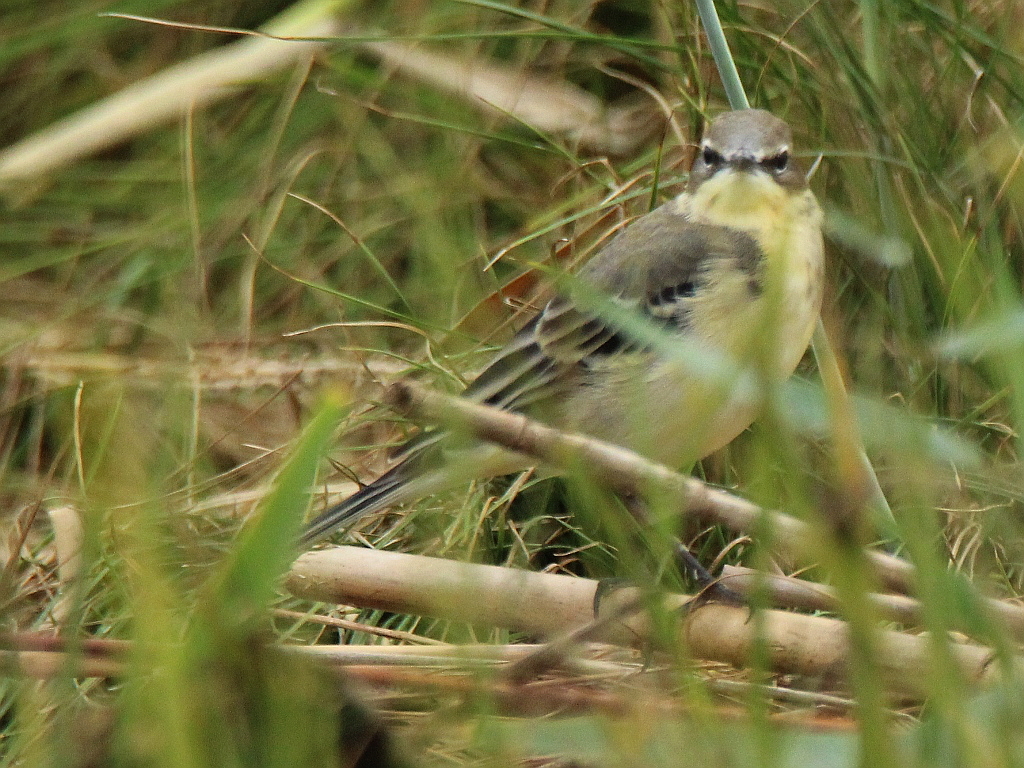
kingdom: Animalia
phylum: Chordata
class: Aves
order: Passeriformes
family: Motacillidae
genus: Motacilla
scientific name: Motacilla flava
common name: Western yellow wagtail
